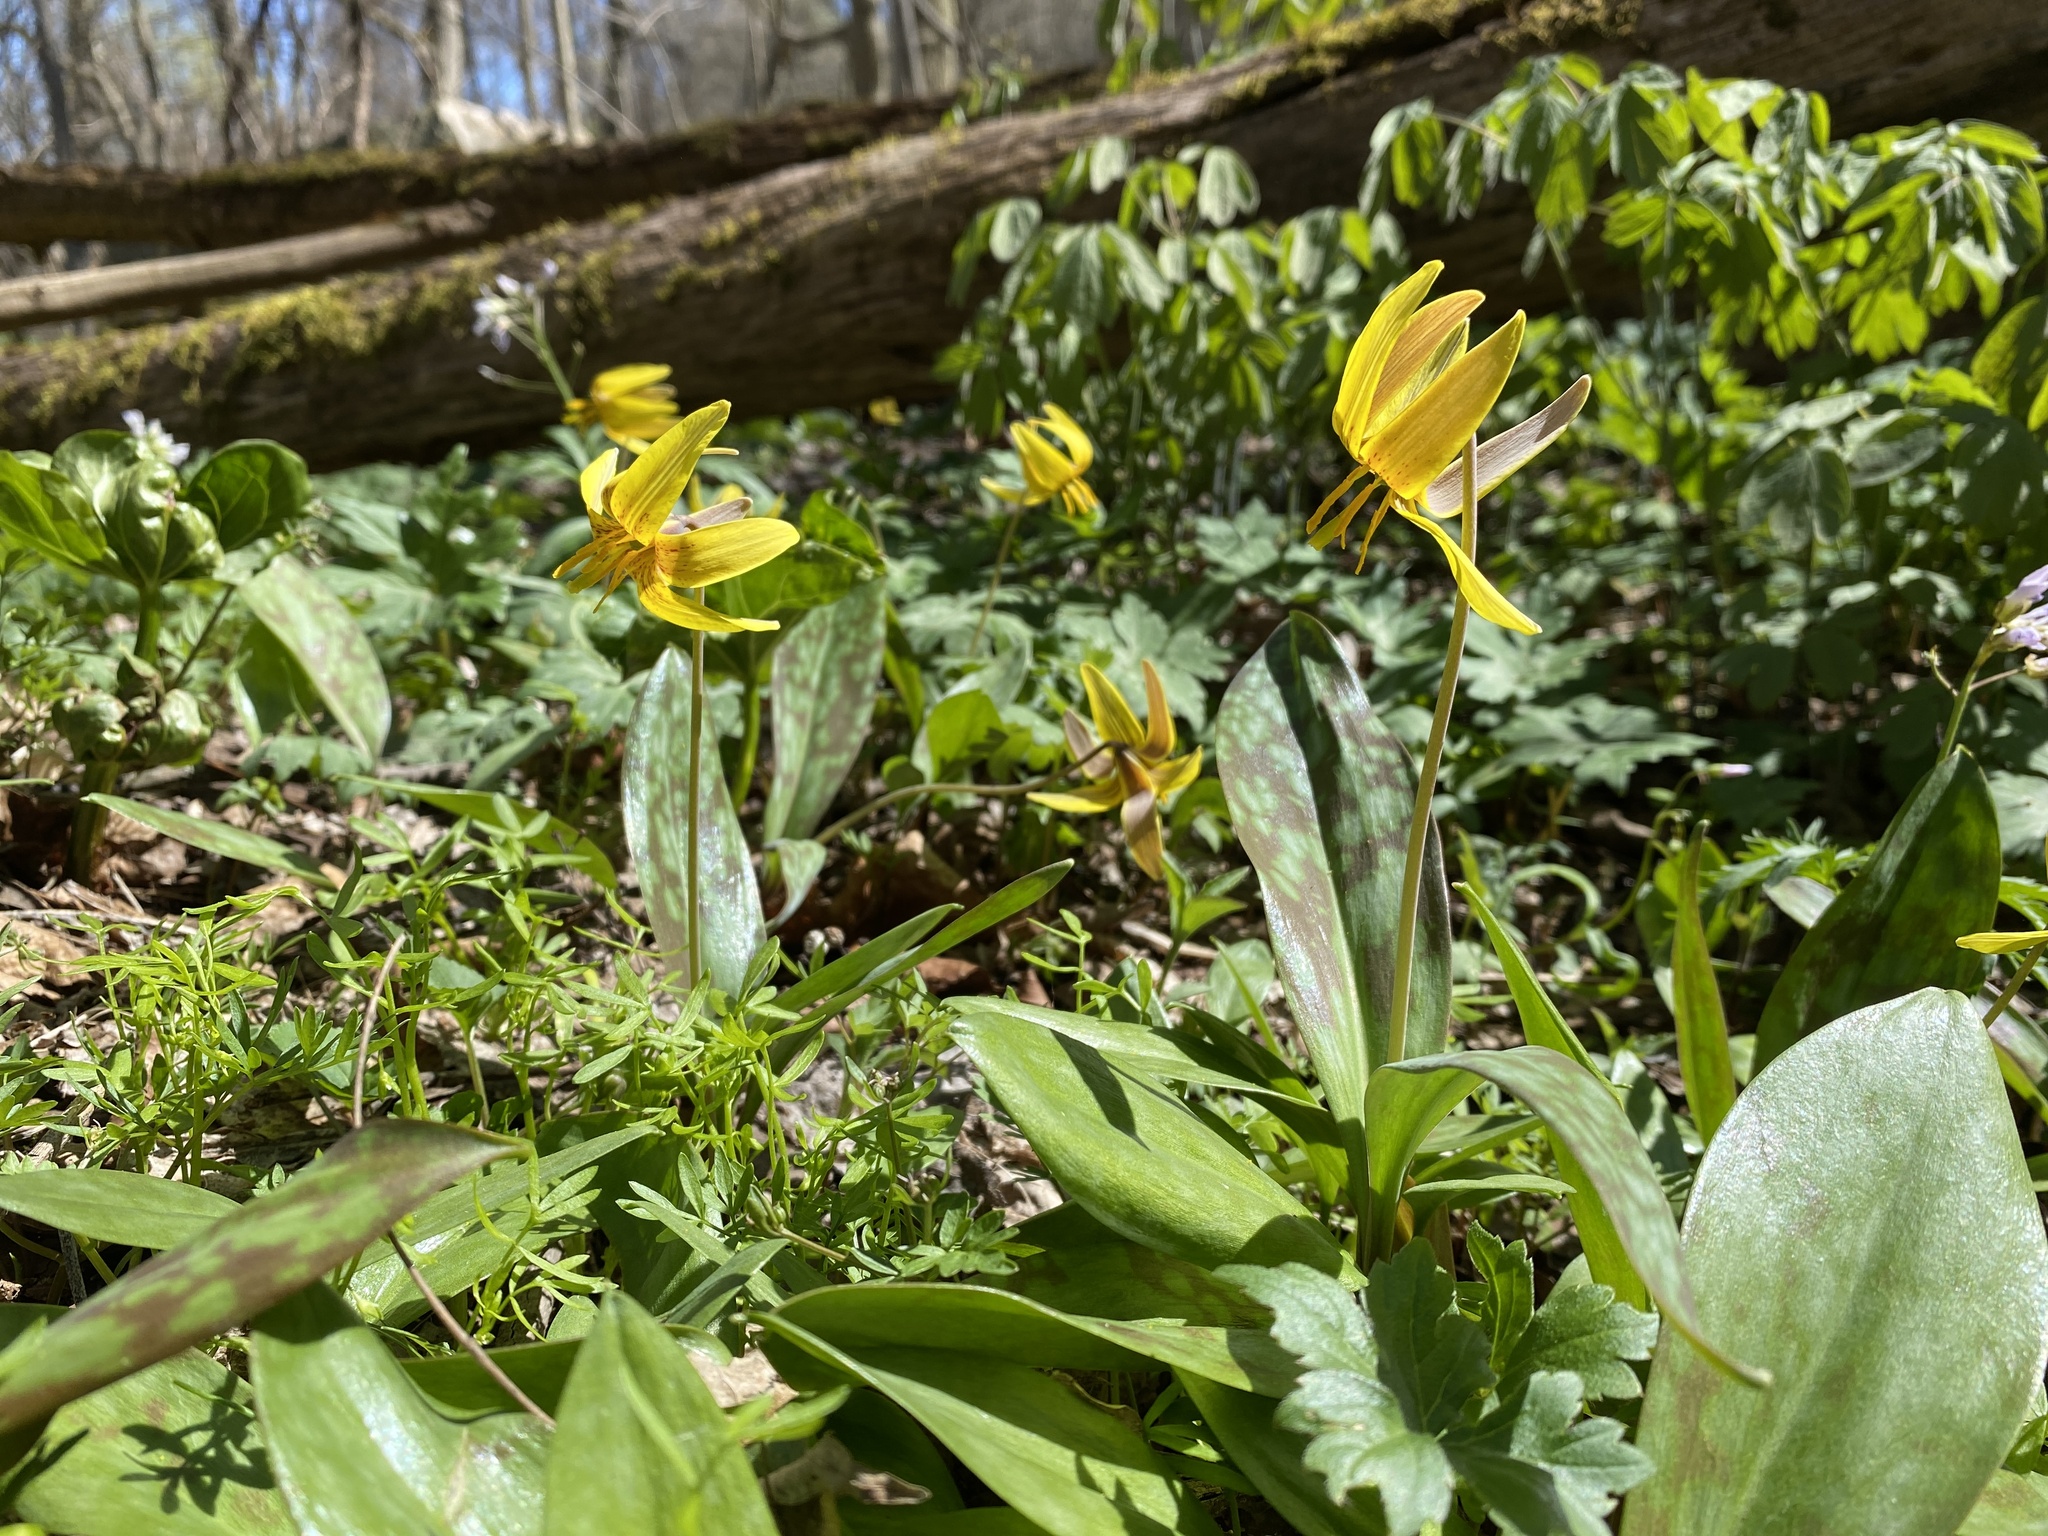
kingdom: Plantae
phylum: Tracheophyta
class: Liliopsida
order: Liliales
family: Liliaceae
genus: Erythronium
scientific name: Erythronium americanum
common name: Yellow adder's-tongue
